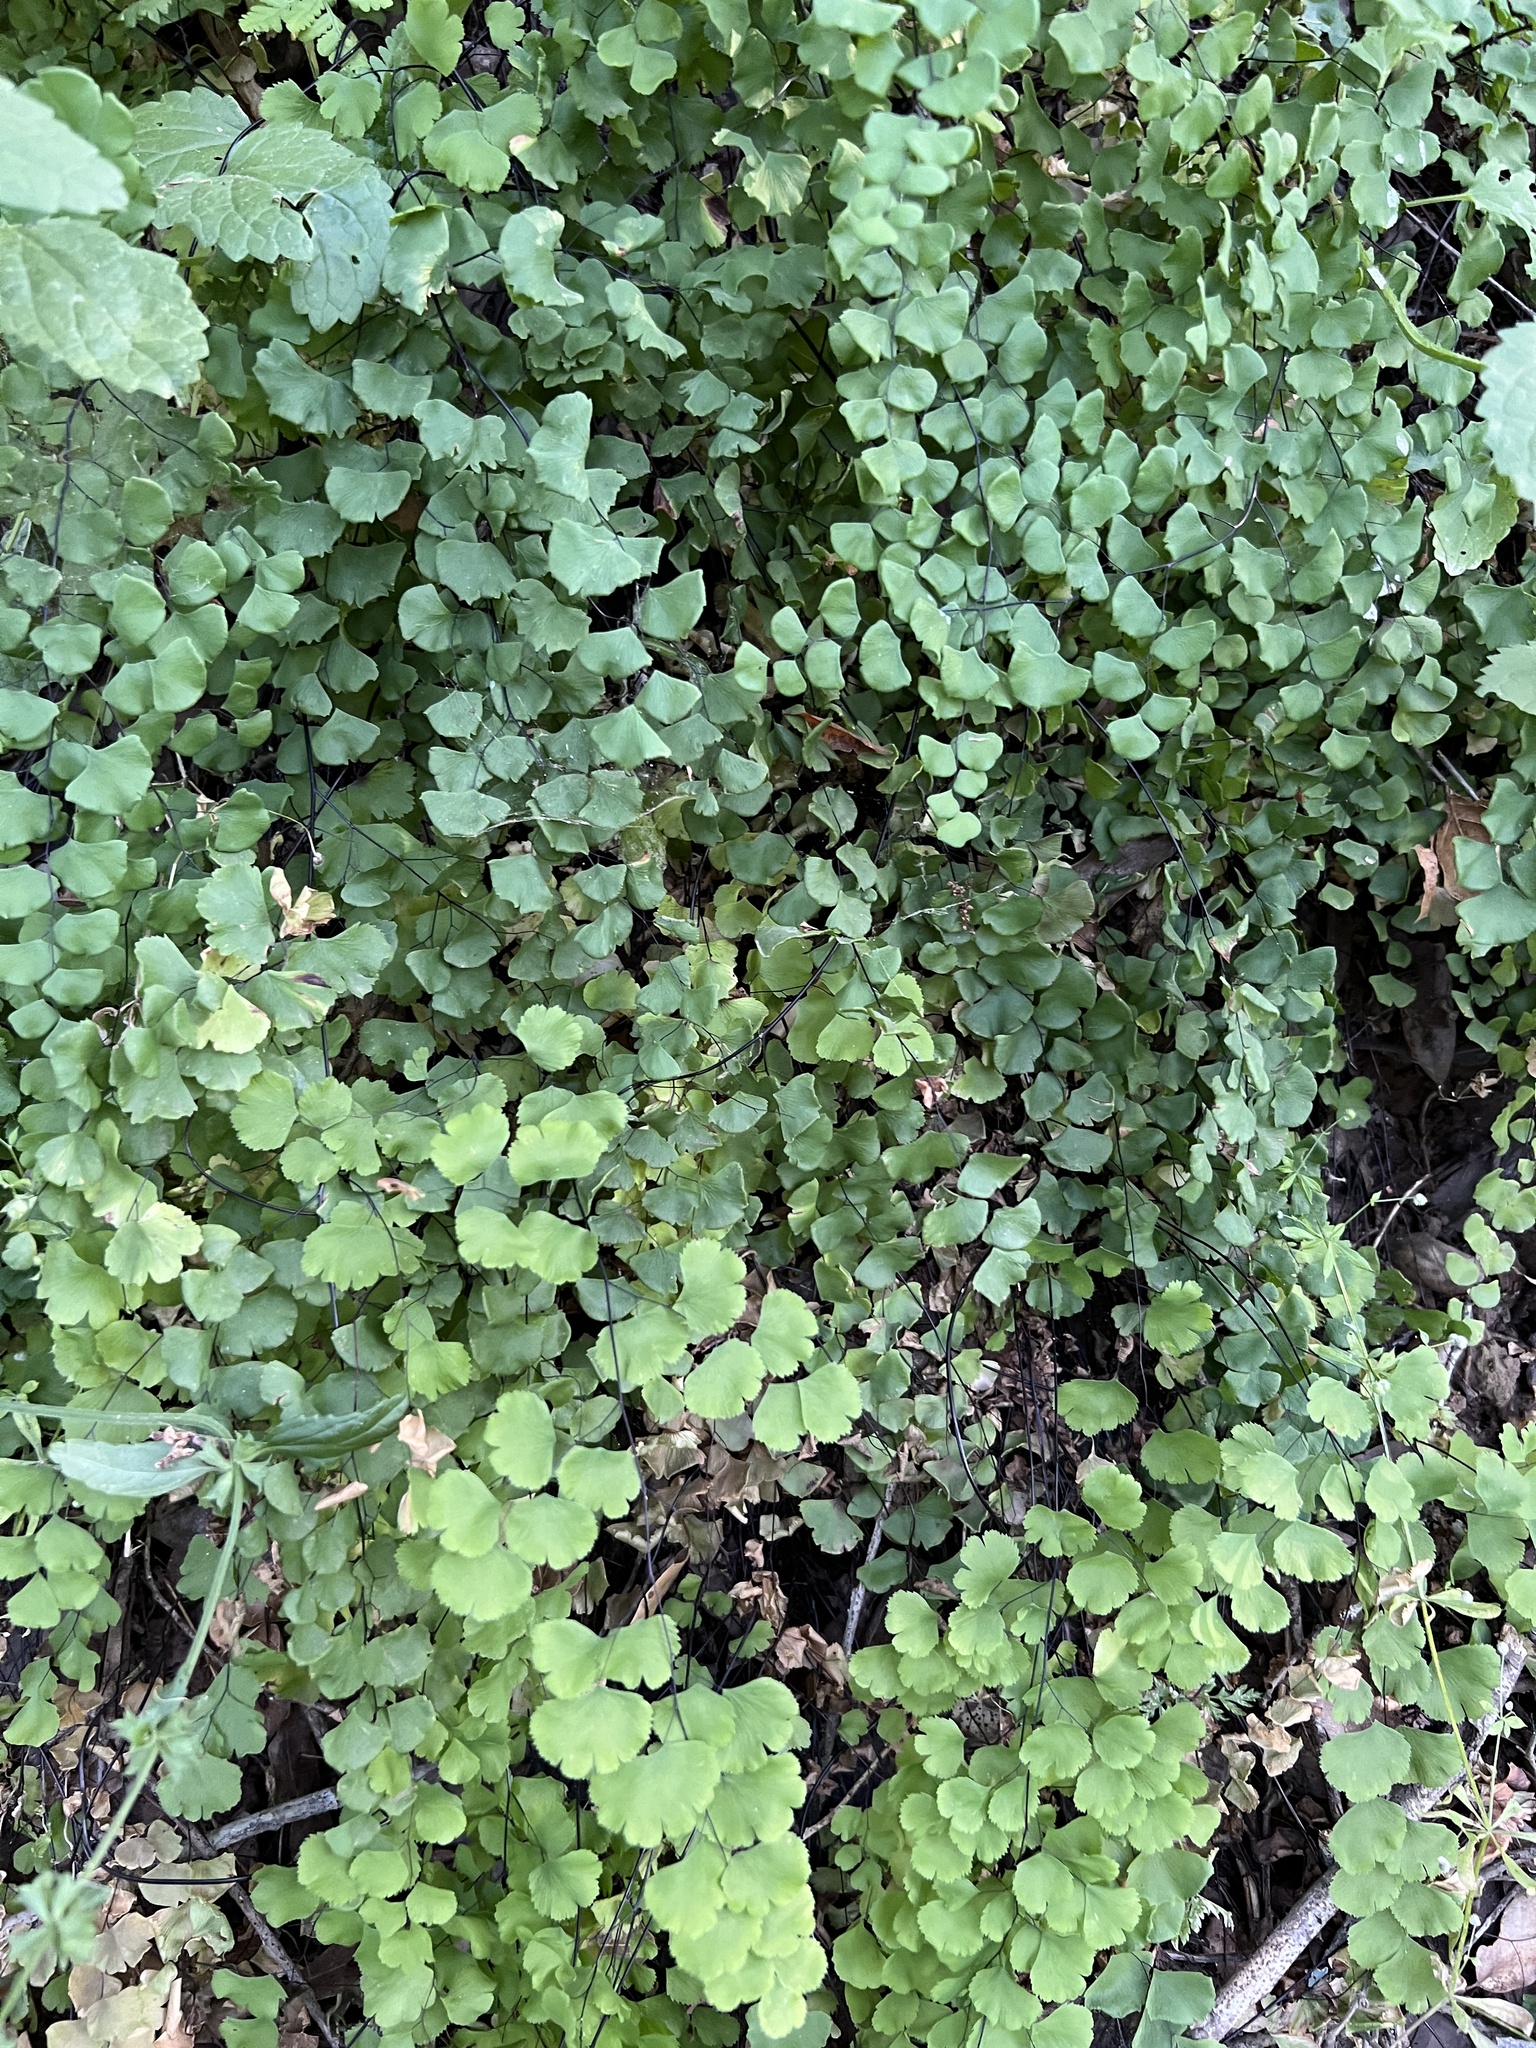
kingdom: Plantae
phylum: Tracheophyta
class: Polypodiopsida
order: Polypodiales
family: Pteridaceae
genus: Adiantum
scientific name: Adiantum jordanii
